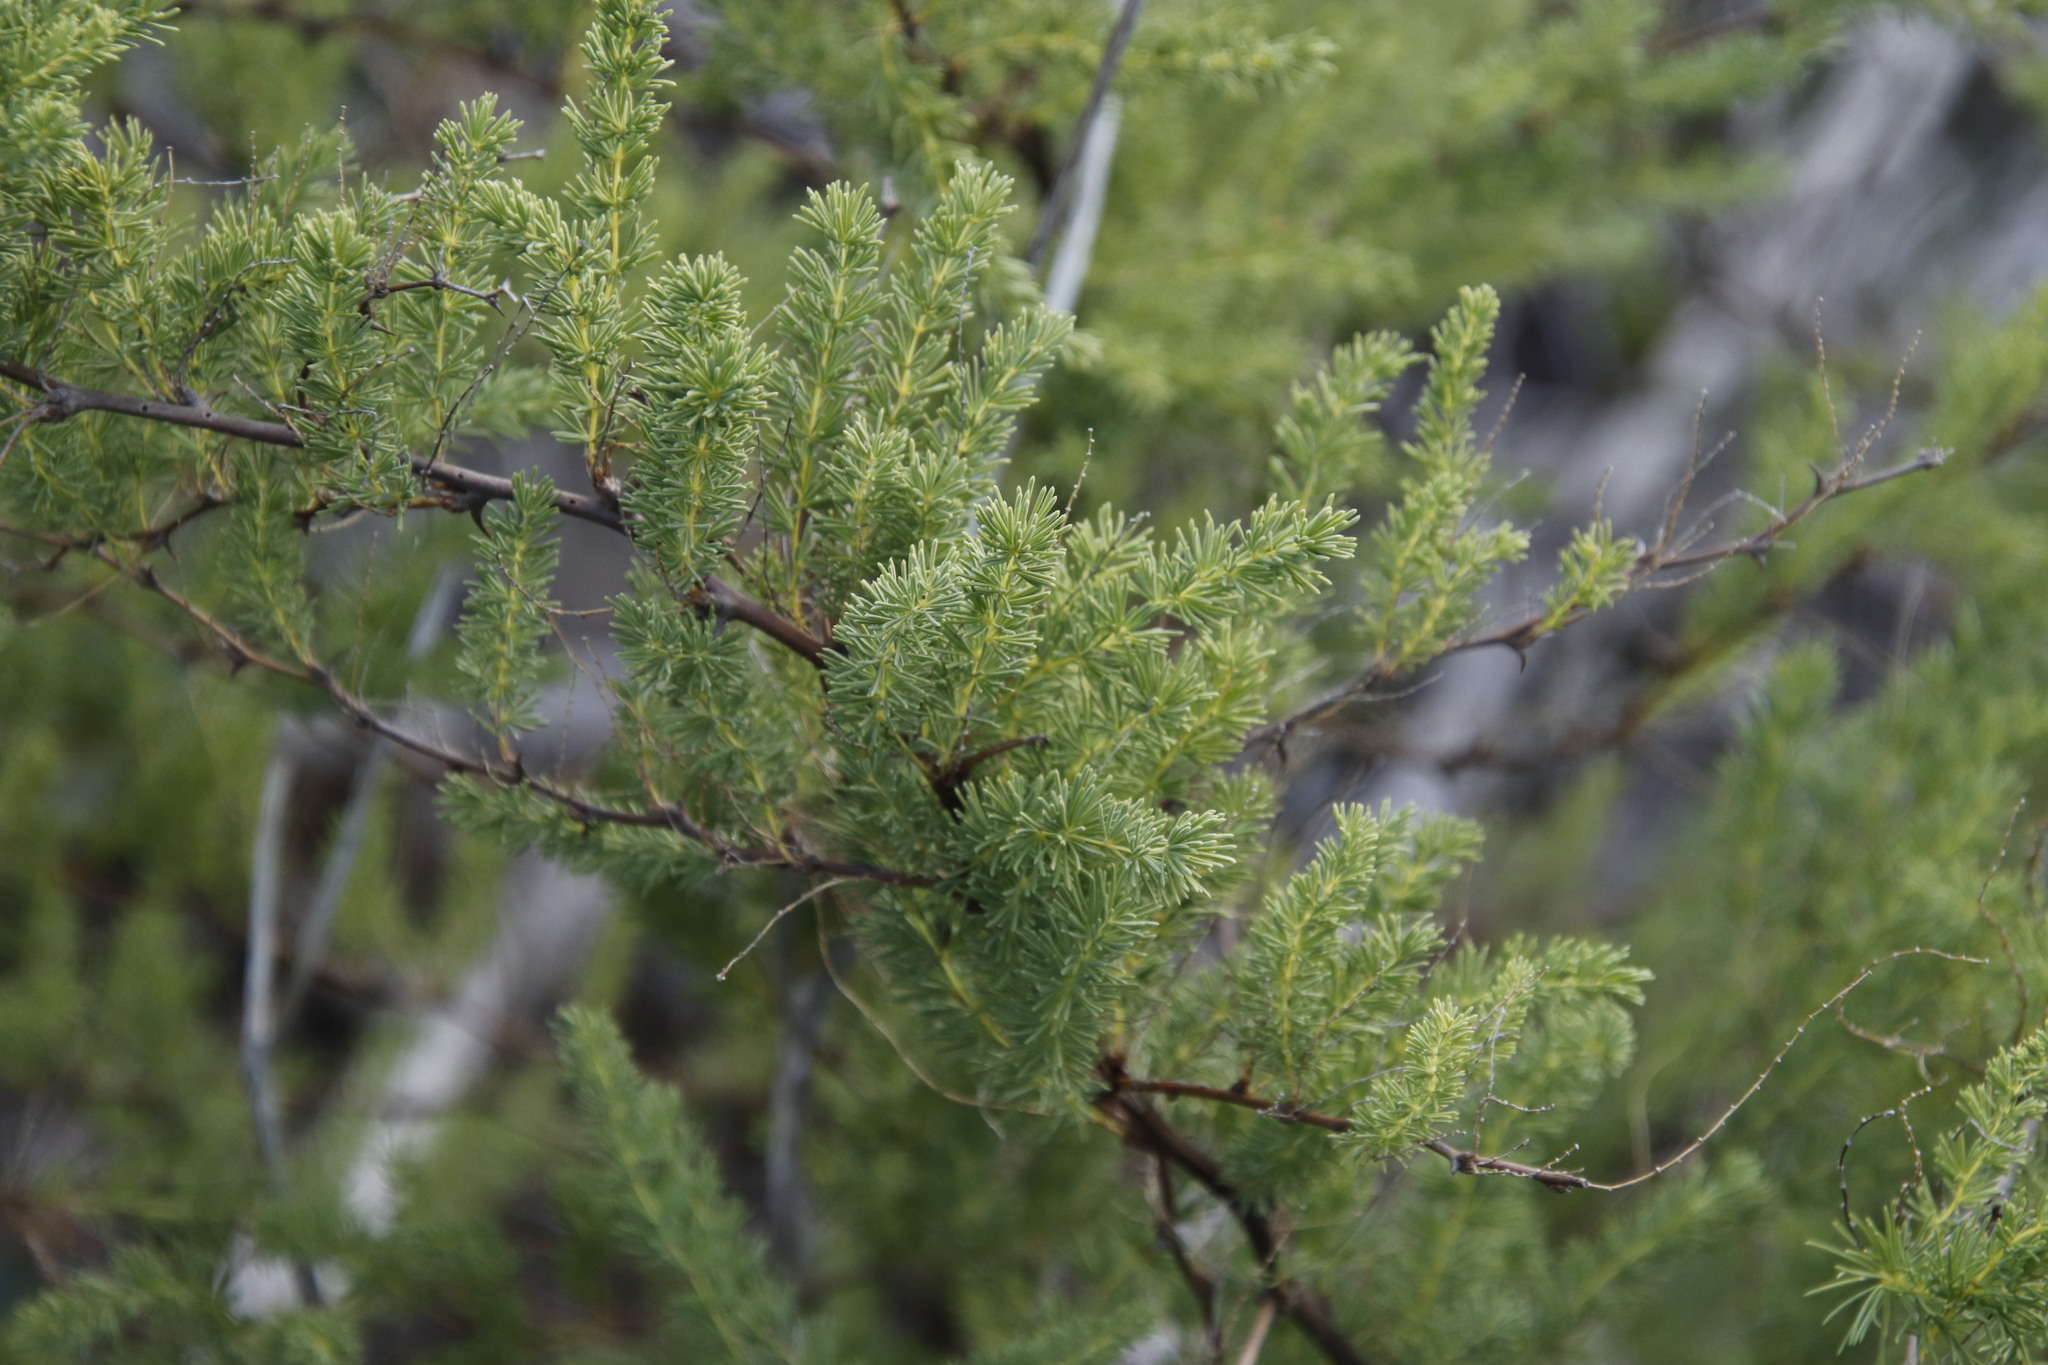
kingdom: Plantae
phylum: Tracheophyta
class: Liliopsida
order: Asparagales
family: Asparagaceae
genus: Asparagus
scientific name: Asparagus rubicundus
